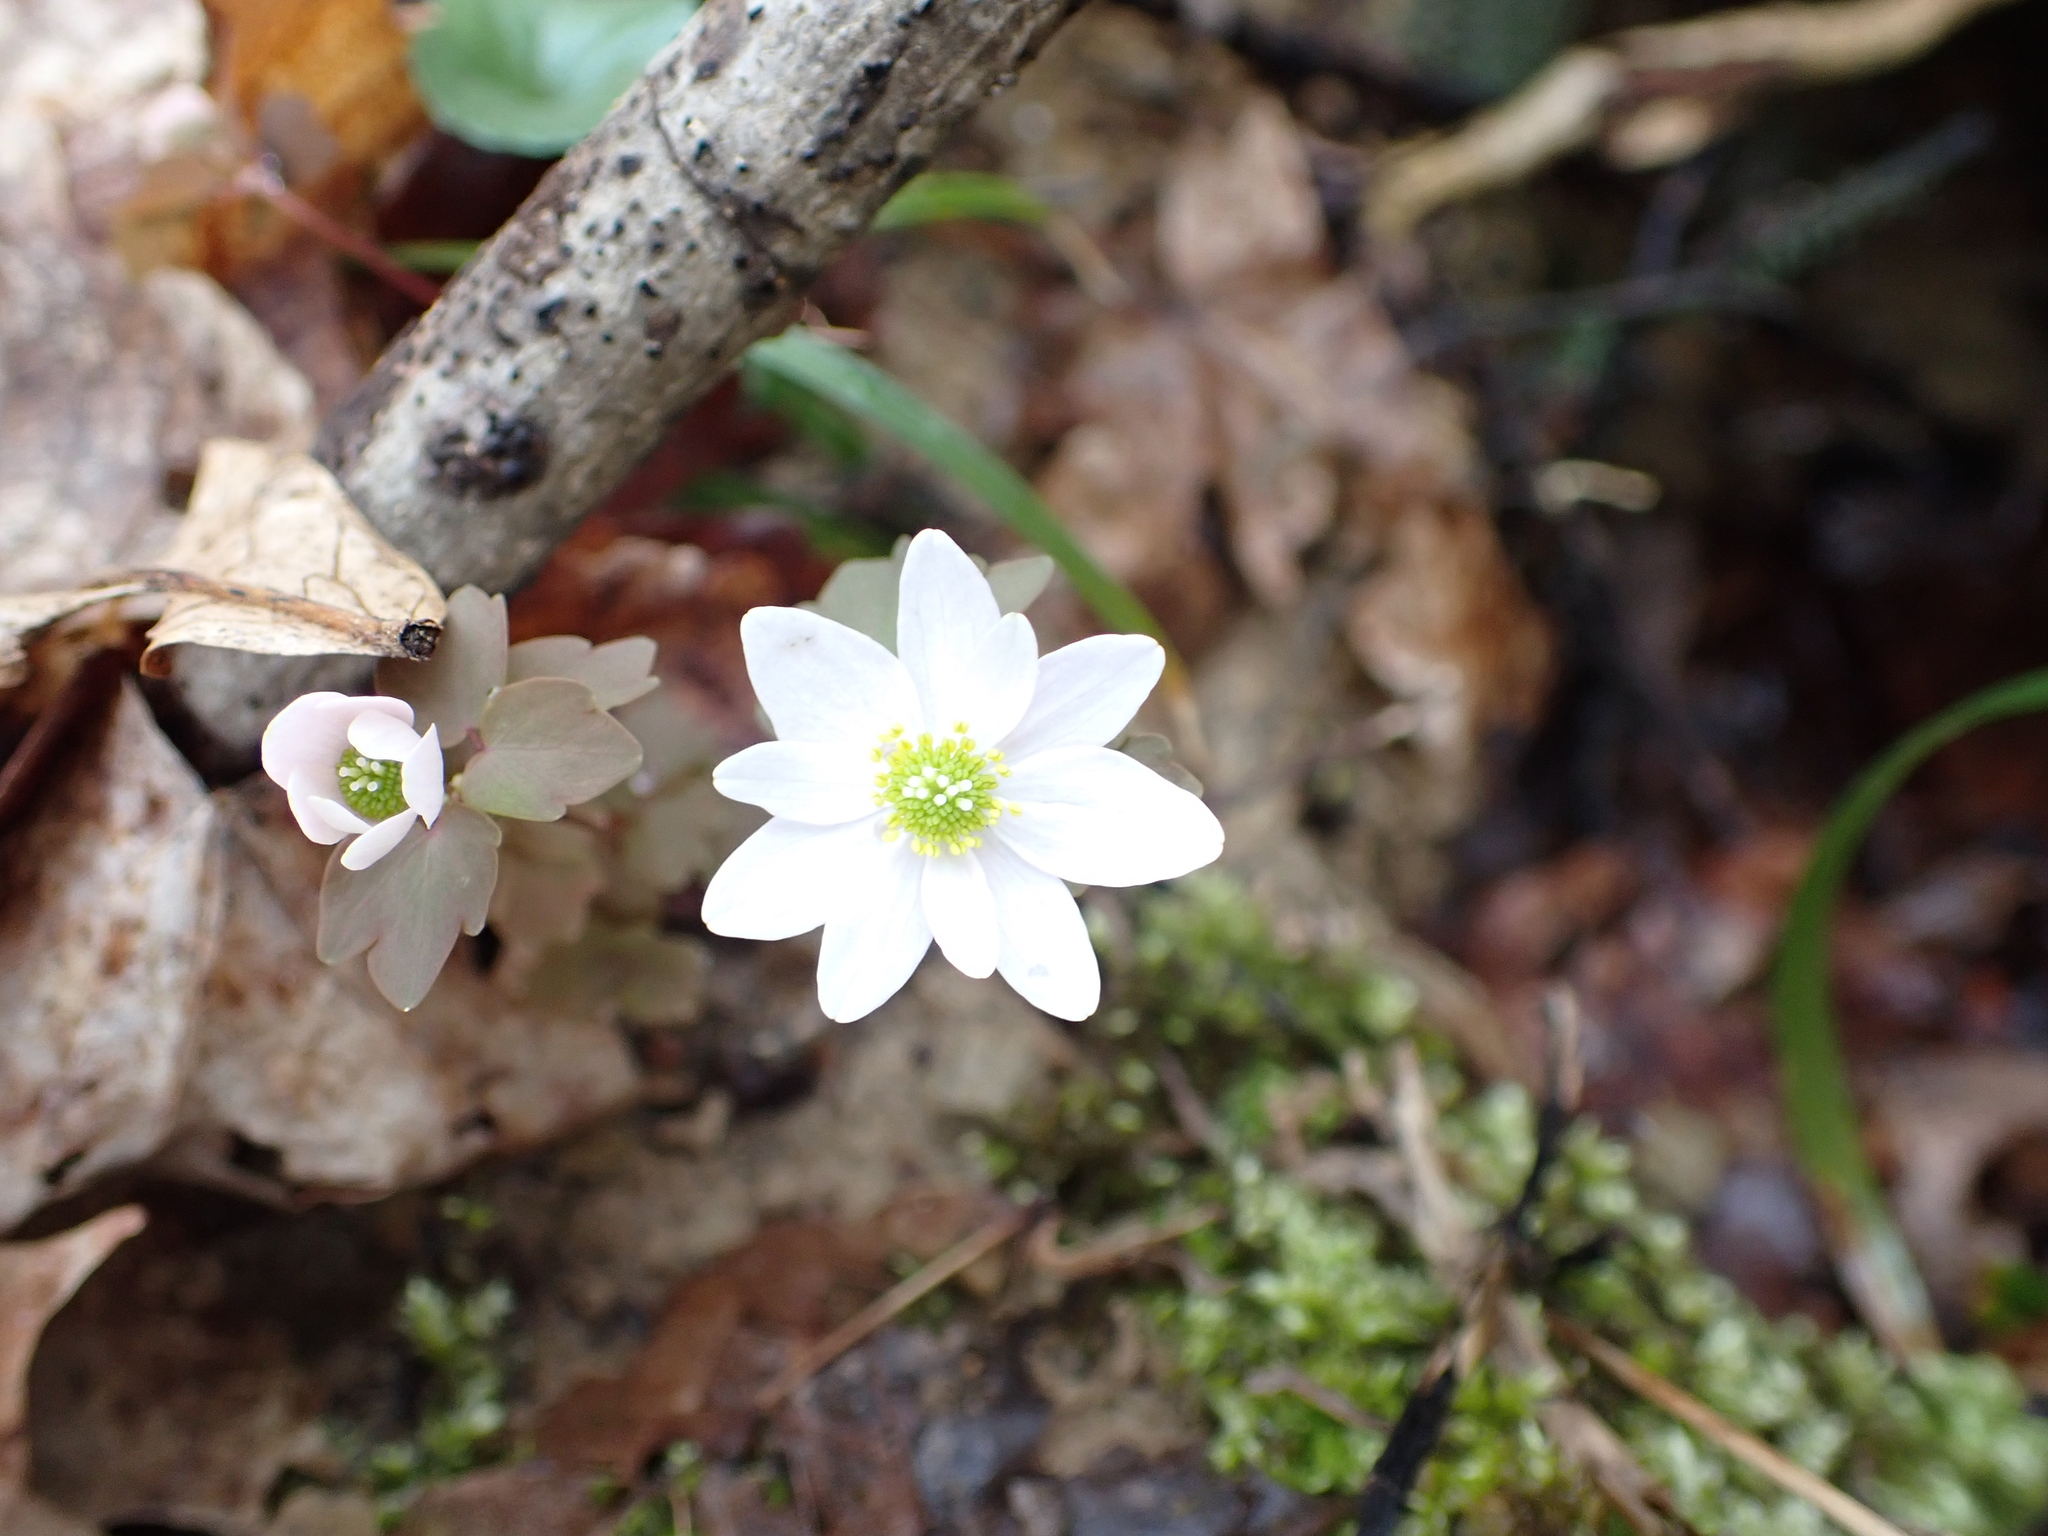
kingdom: Plantae
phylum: Tracheophyta
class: Magnoliopsida
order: Ranunculales
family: Ranunculaceae
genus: Thalictrum
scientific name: Thalictrum thalictroides
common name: Rue-anemone
